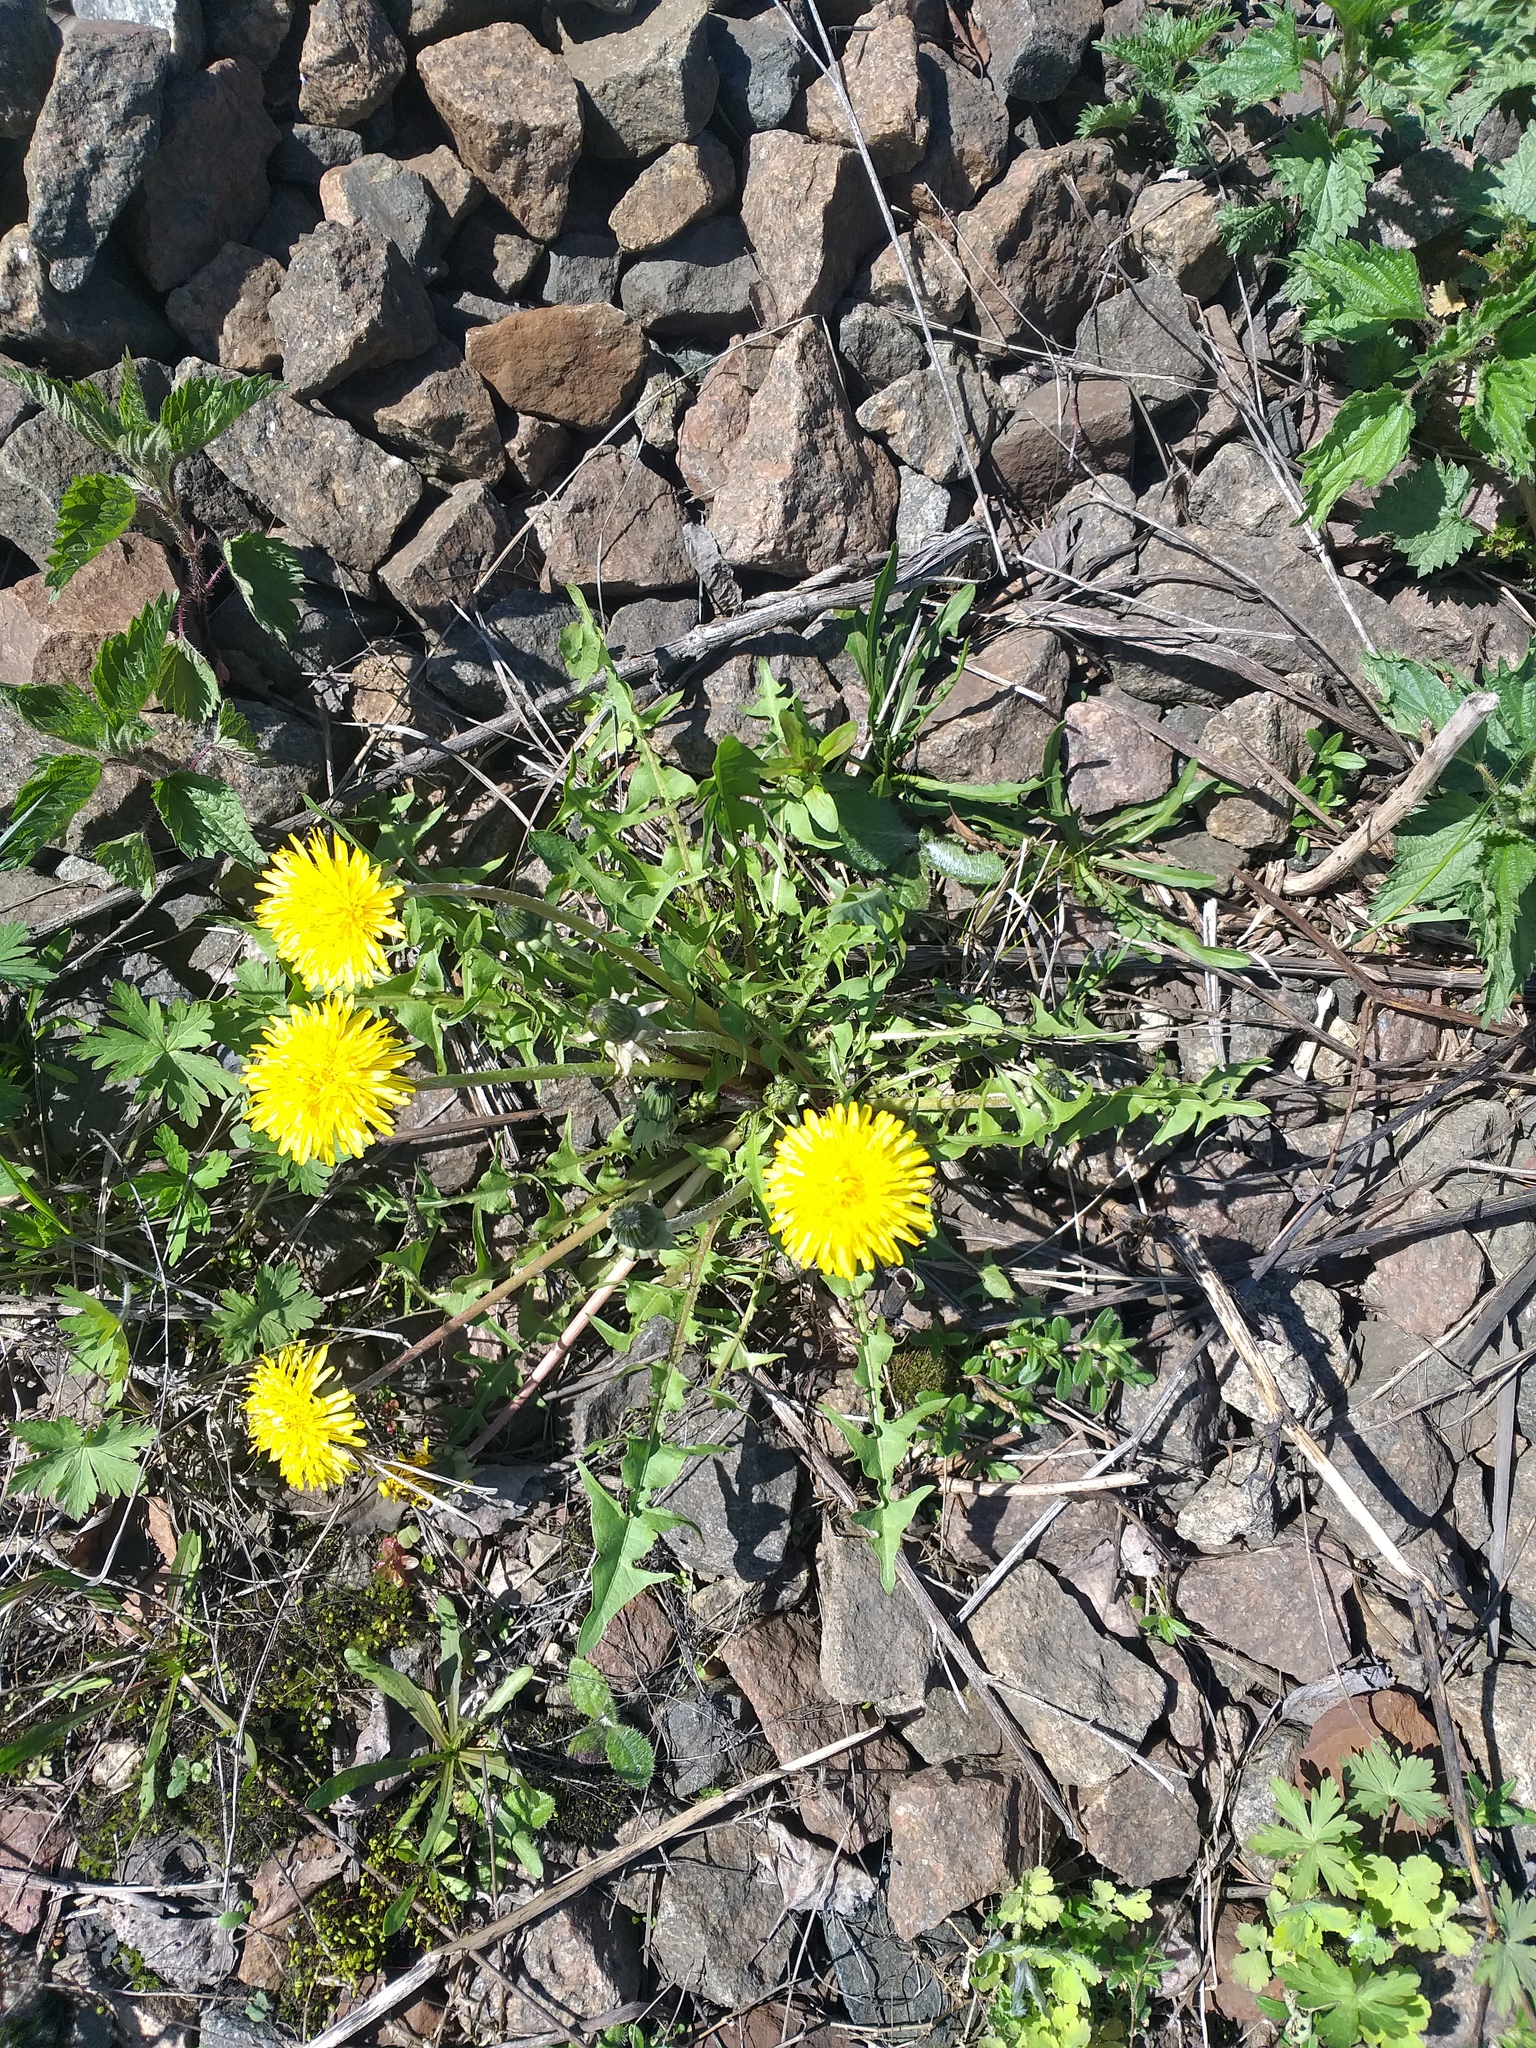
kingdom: Plantae
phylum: Tracheophyta
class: Magnoliopsida
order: Asterales
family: Asteraceae
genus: Taraxacum
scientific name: Taraxacum officinale
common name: Common dandelion
